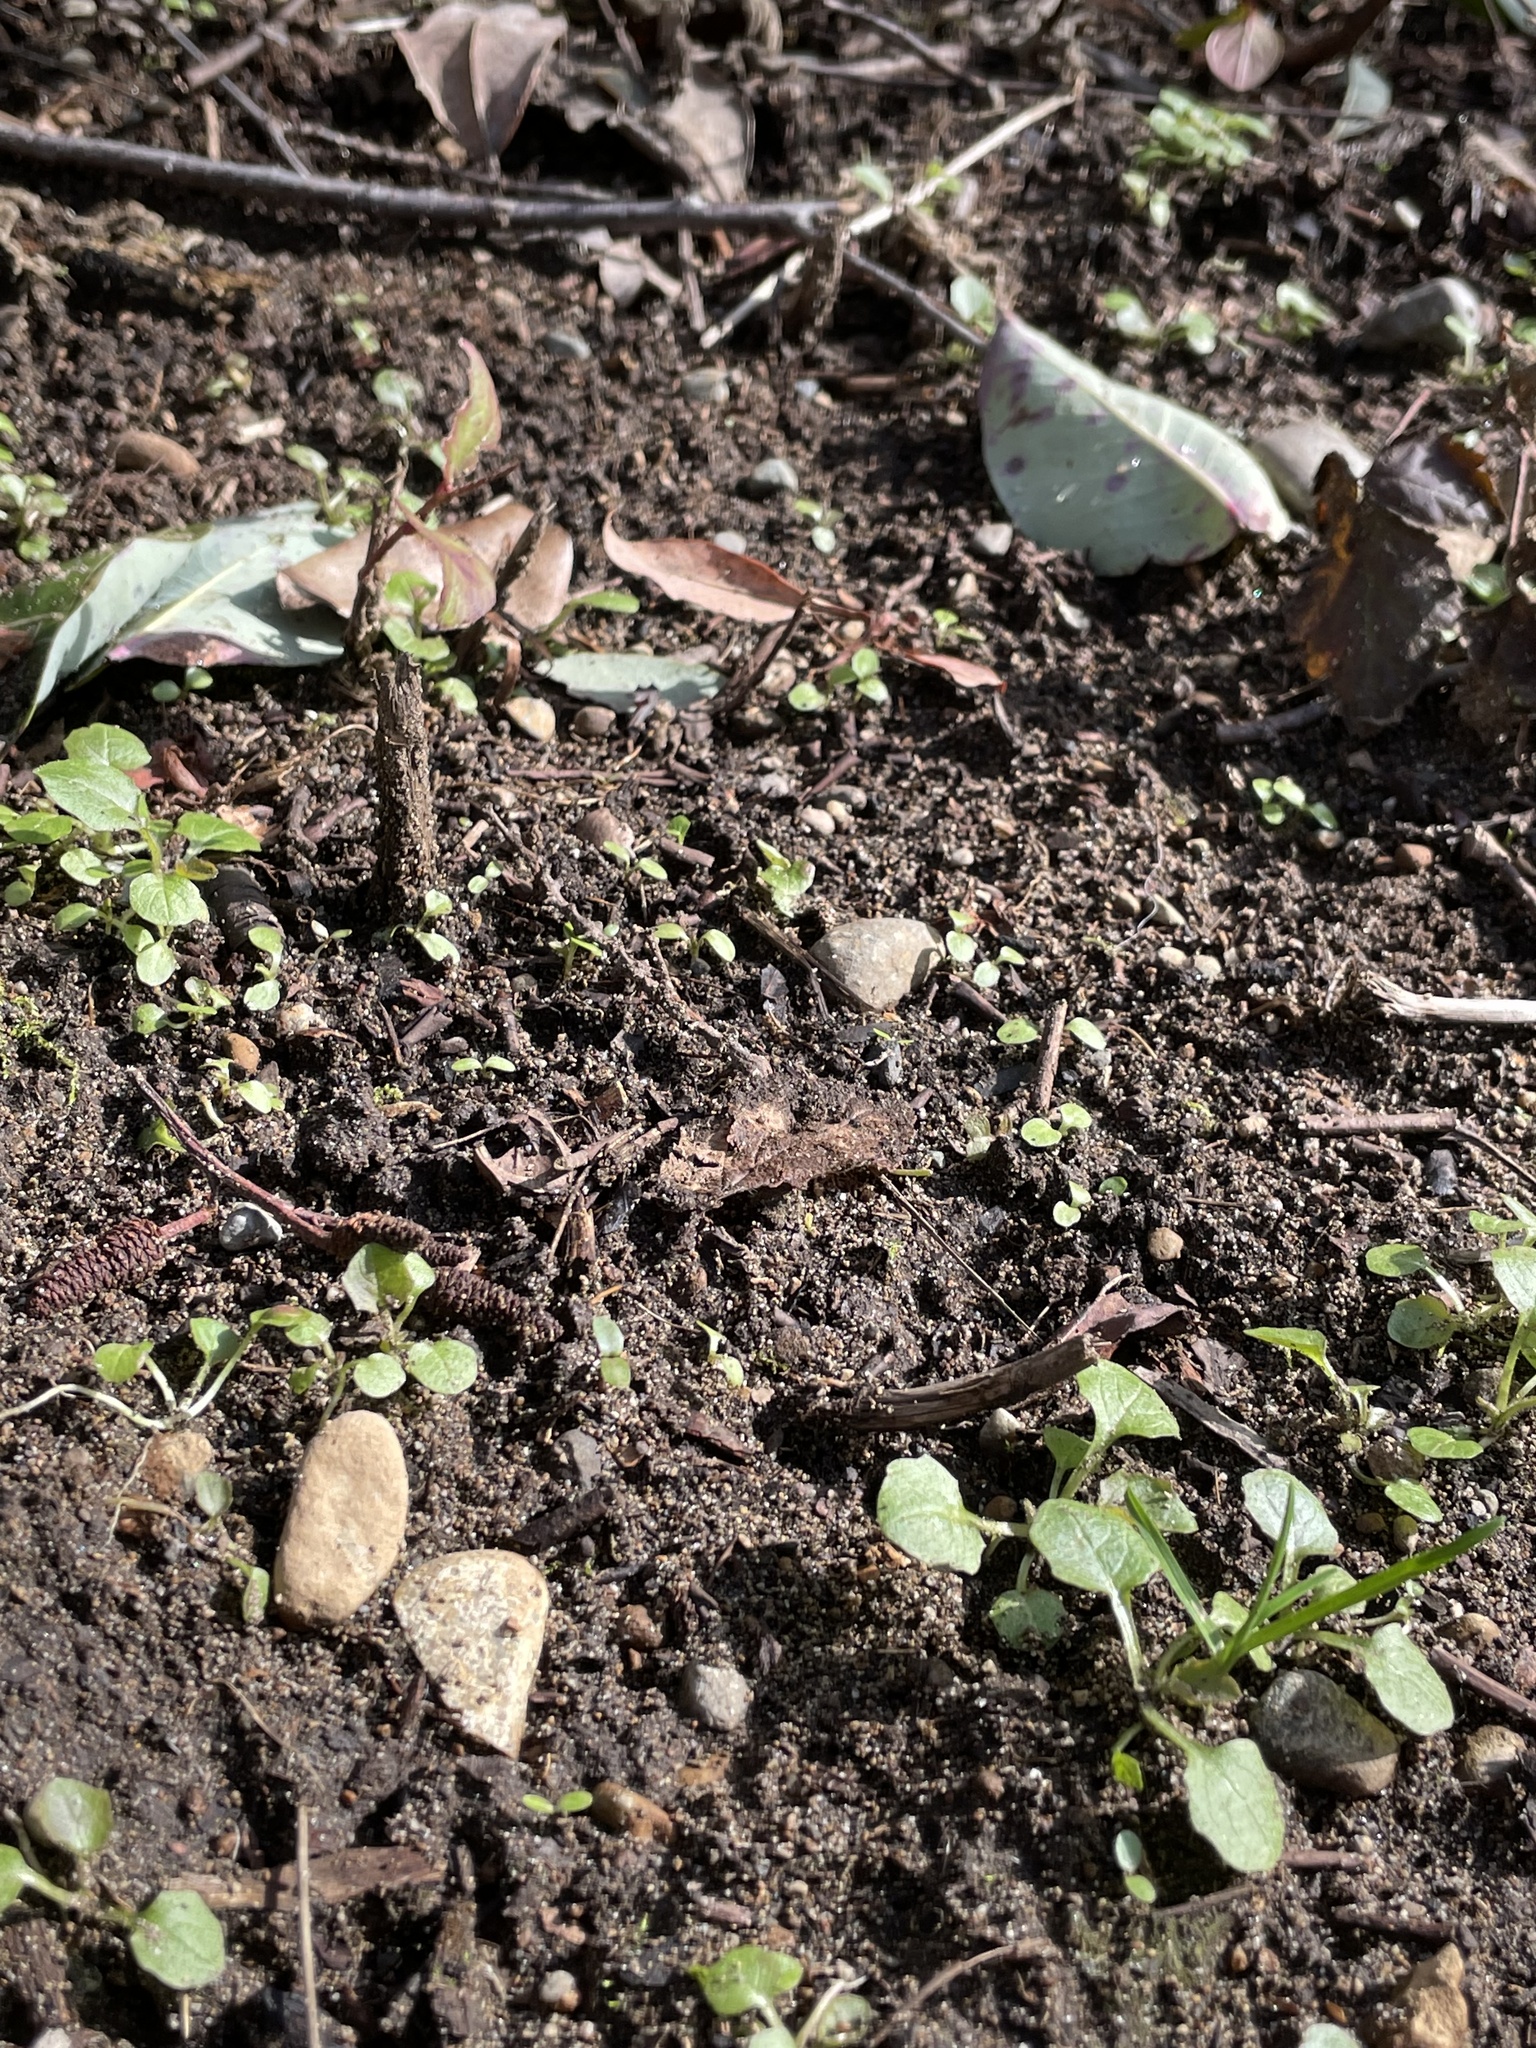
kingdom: Plantae
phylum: Tracheophyta
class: Magnoliopsida
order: Asterales
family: Asteraceae
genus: Lapsana
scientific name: Lapsana communis
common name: Nipplewort
